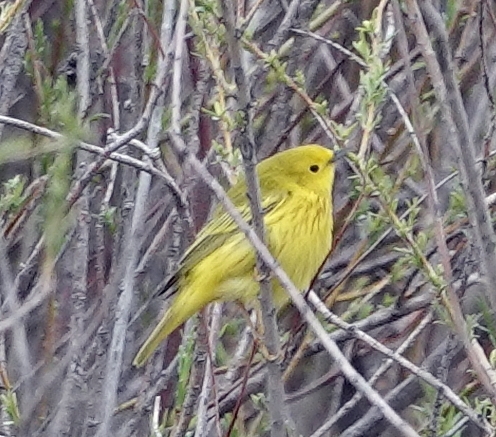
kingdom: Animalia
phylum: Chordata
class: Aves
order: Passeriformes
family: Parulidae
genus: Setophaga
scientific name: Setophaga petechia
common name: Yellow warbler
